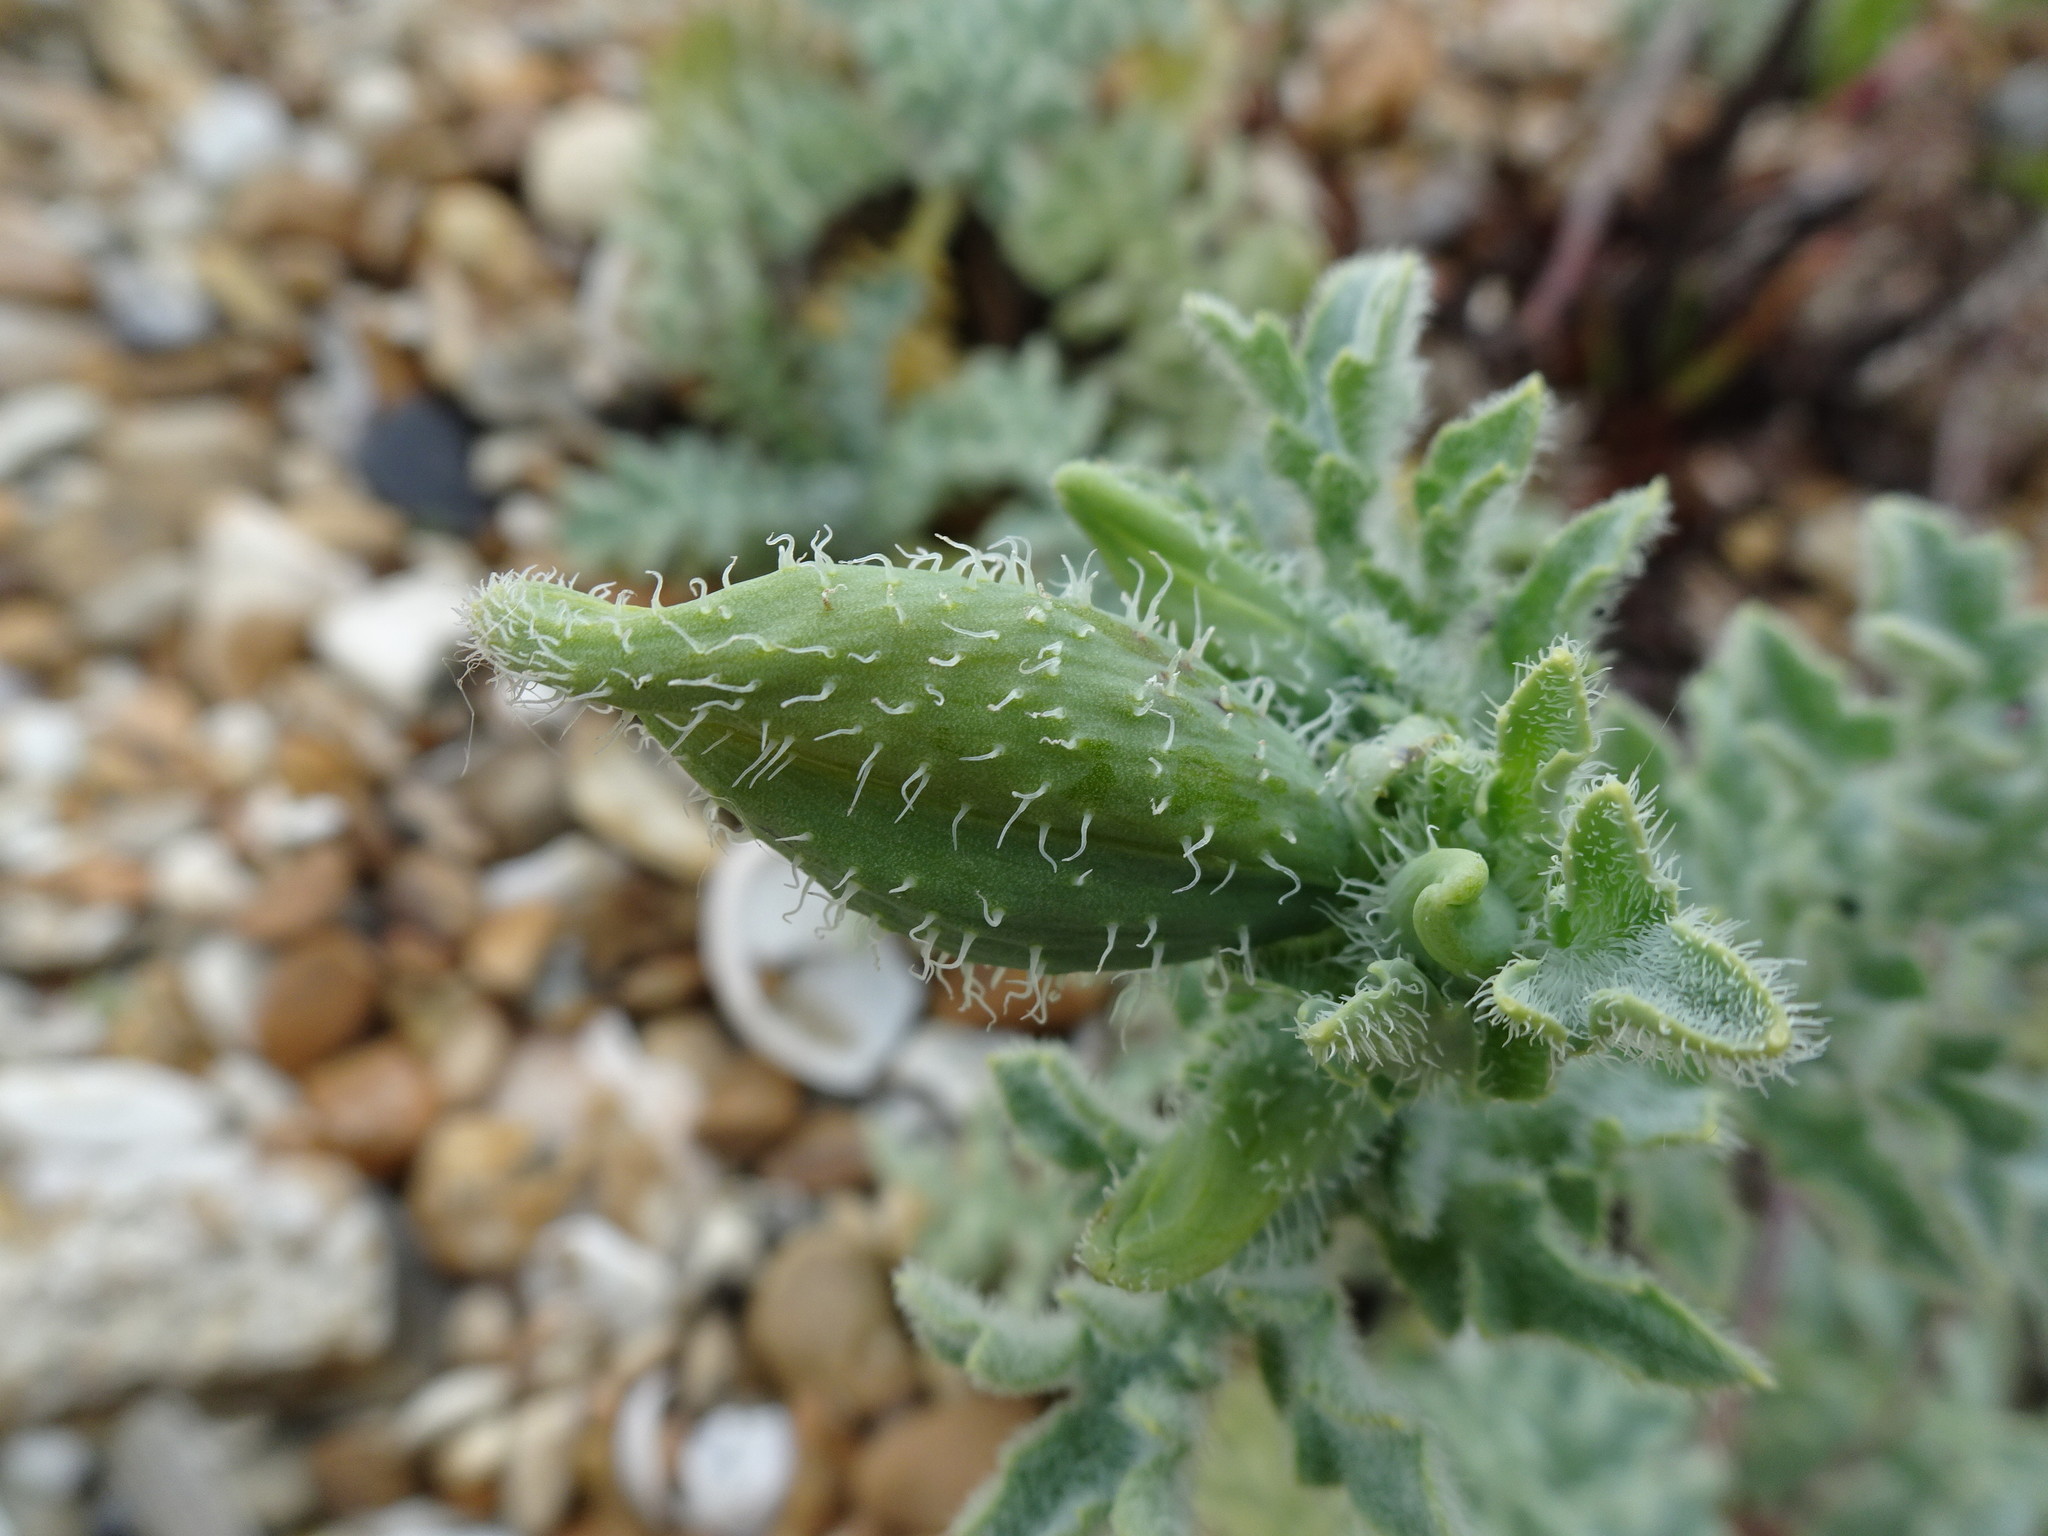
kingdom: Plantae
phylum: Tracheophyta
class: Magnoliopsida
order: Ranunculales
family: Papaveraceae
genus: Glaucium
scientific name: Glaucium flavum
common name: Yellow horned-poppy
